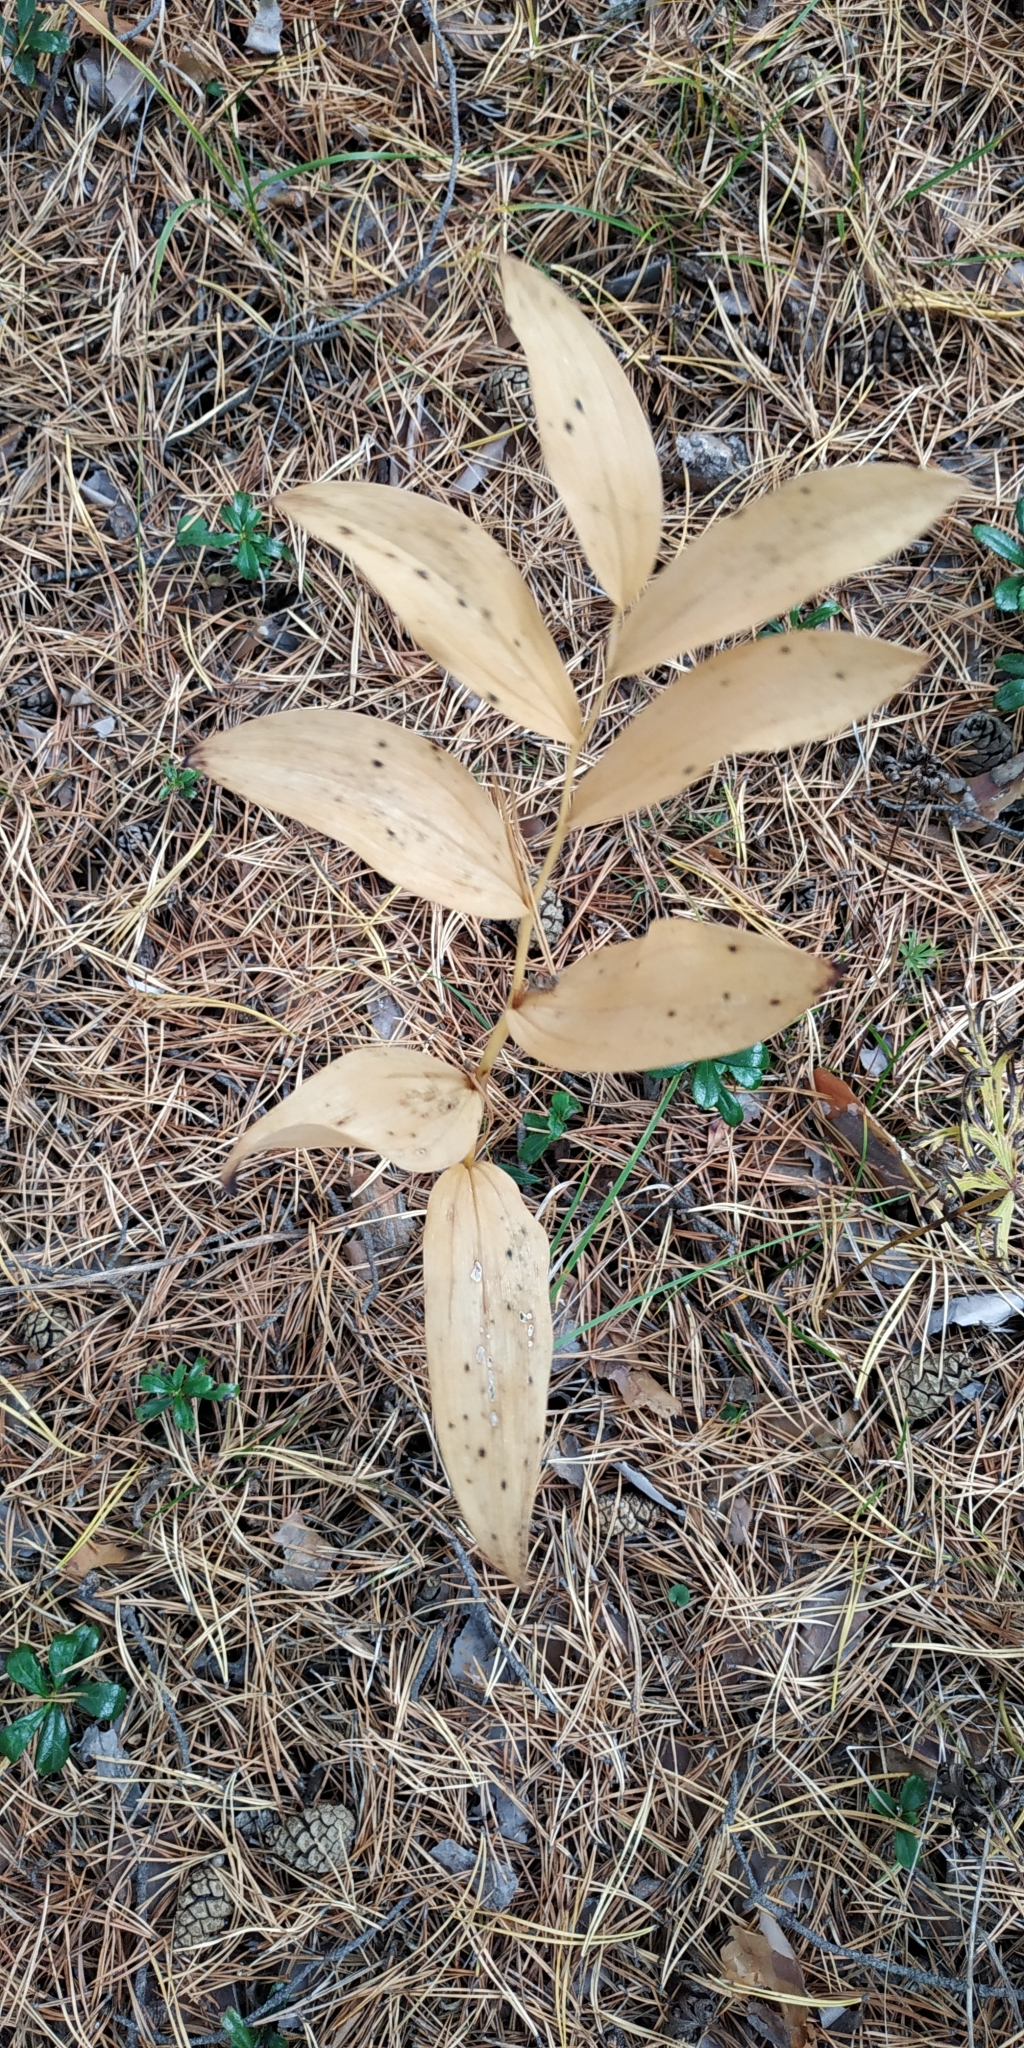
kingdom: Plantae
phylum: Tracheophyta
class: Liliopsida
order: Asparagales
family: Asparagaceae
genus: Polygonatum
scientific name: Polygonatum odoratum
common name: Angular solomon's-seal
